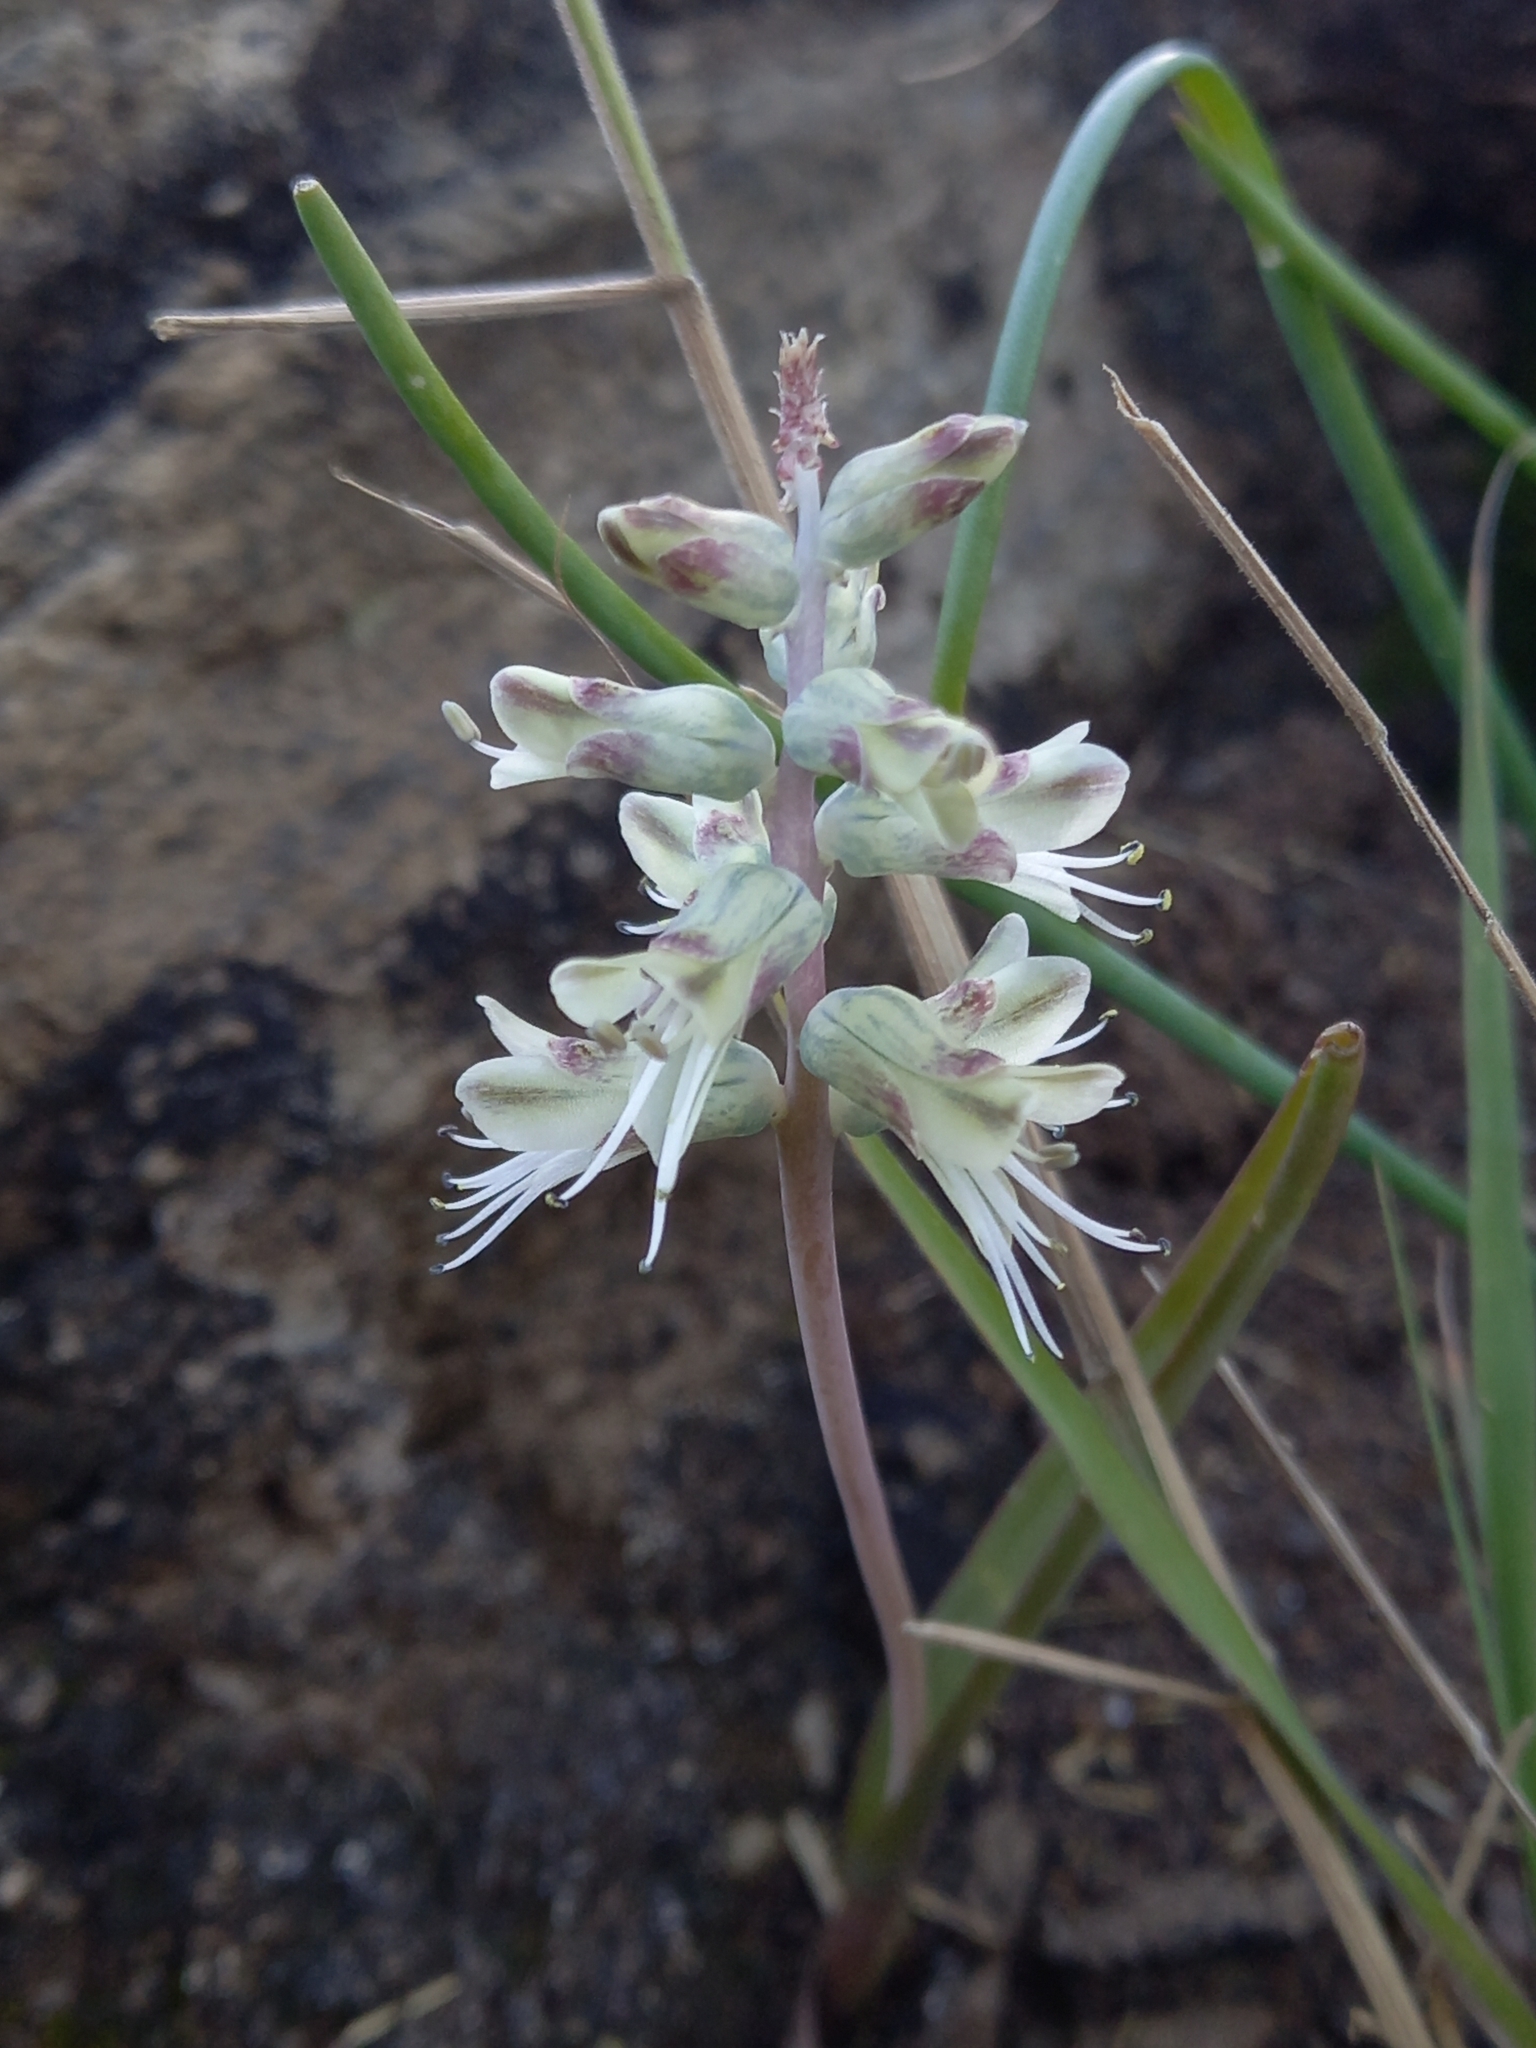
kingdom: Plantae
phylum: Tracheophyta
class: Liliopsida
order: Asparagales
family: Asparagaceae
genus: Lachenalia
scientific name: Lachenalia karooica
